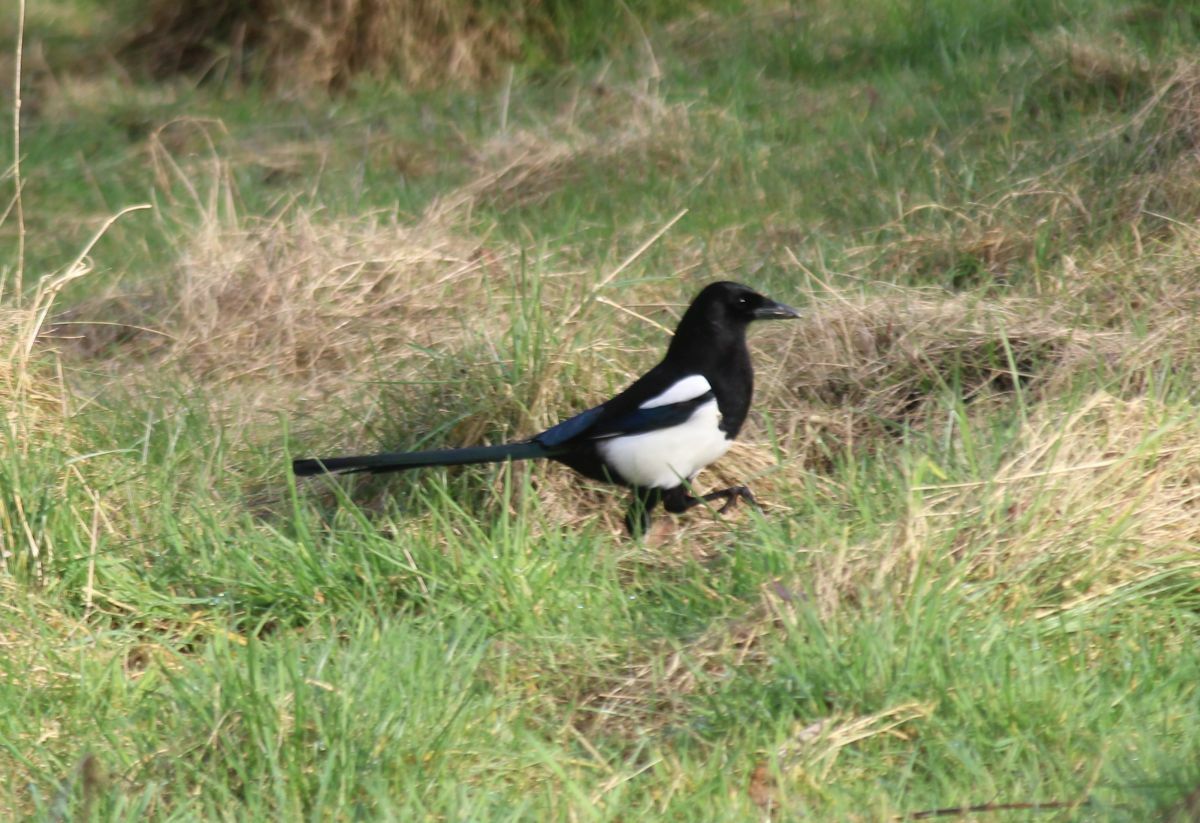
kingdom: Animalia
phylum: Chordata
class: Aves
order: Passeriformes
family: Corvidae
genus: Pica
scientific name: Pica pica
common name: Eurasian magpie
